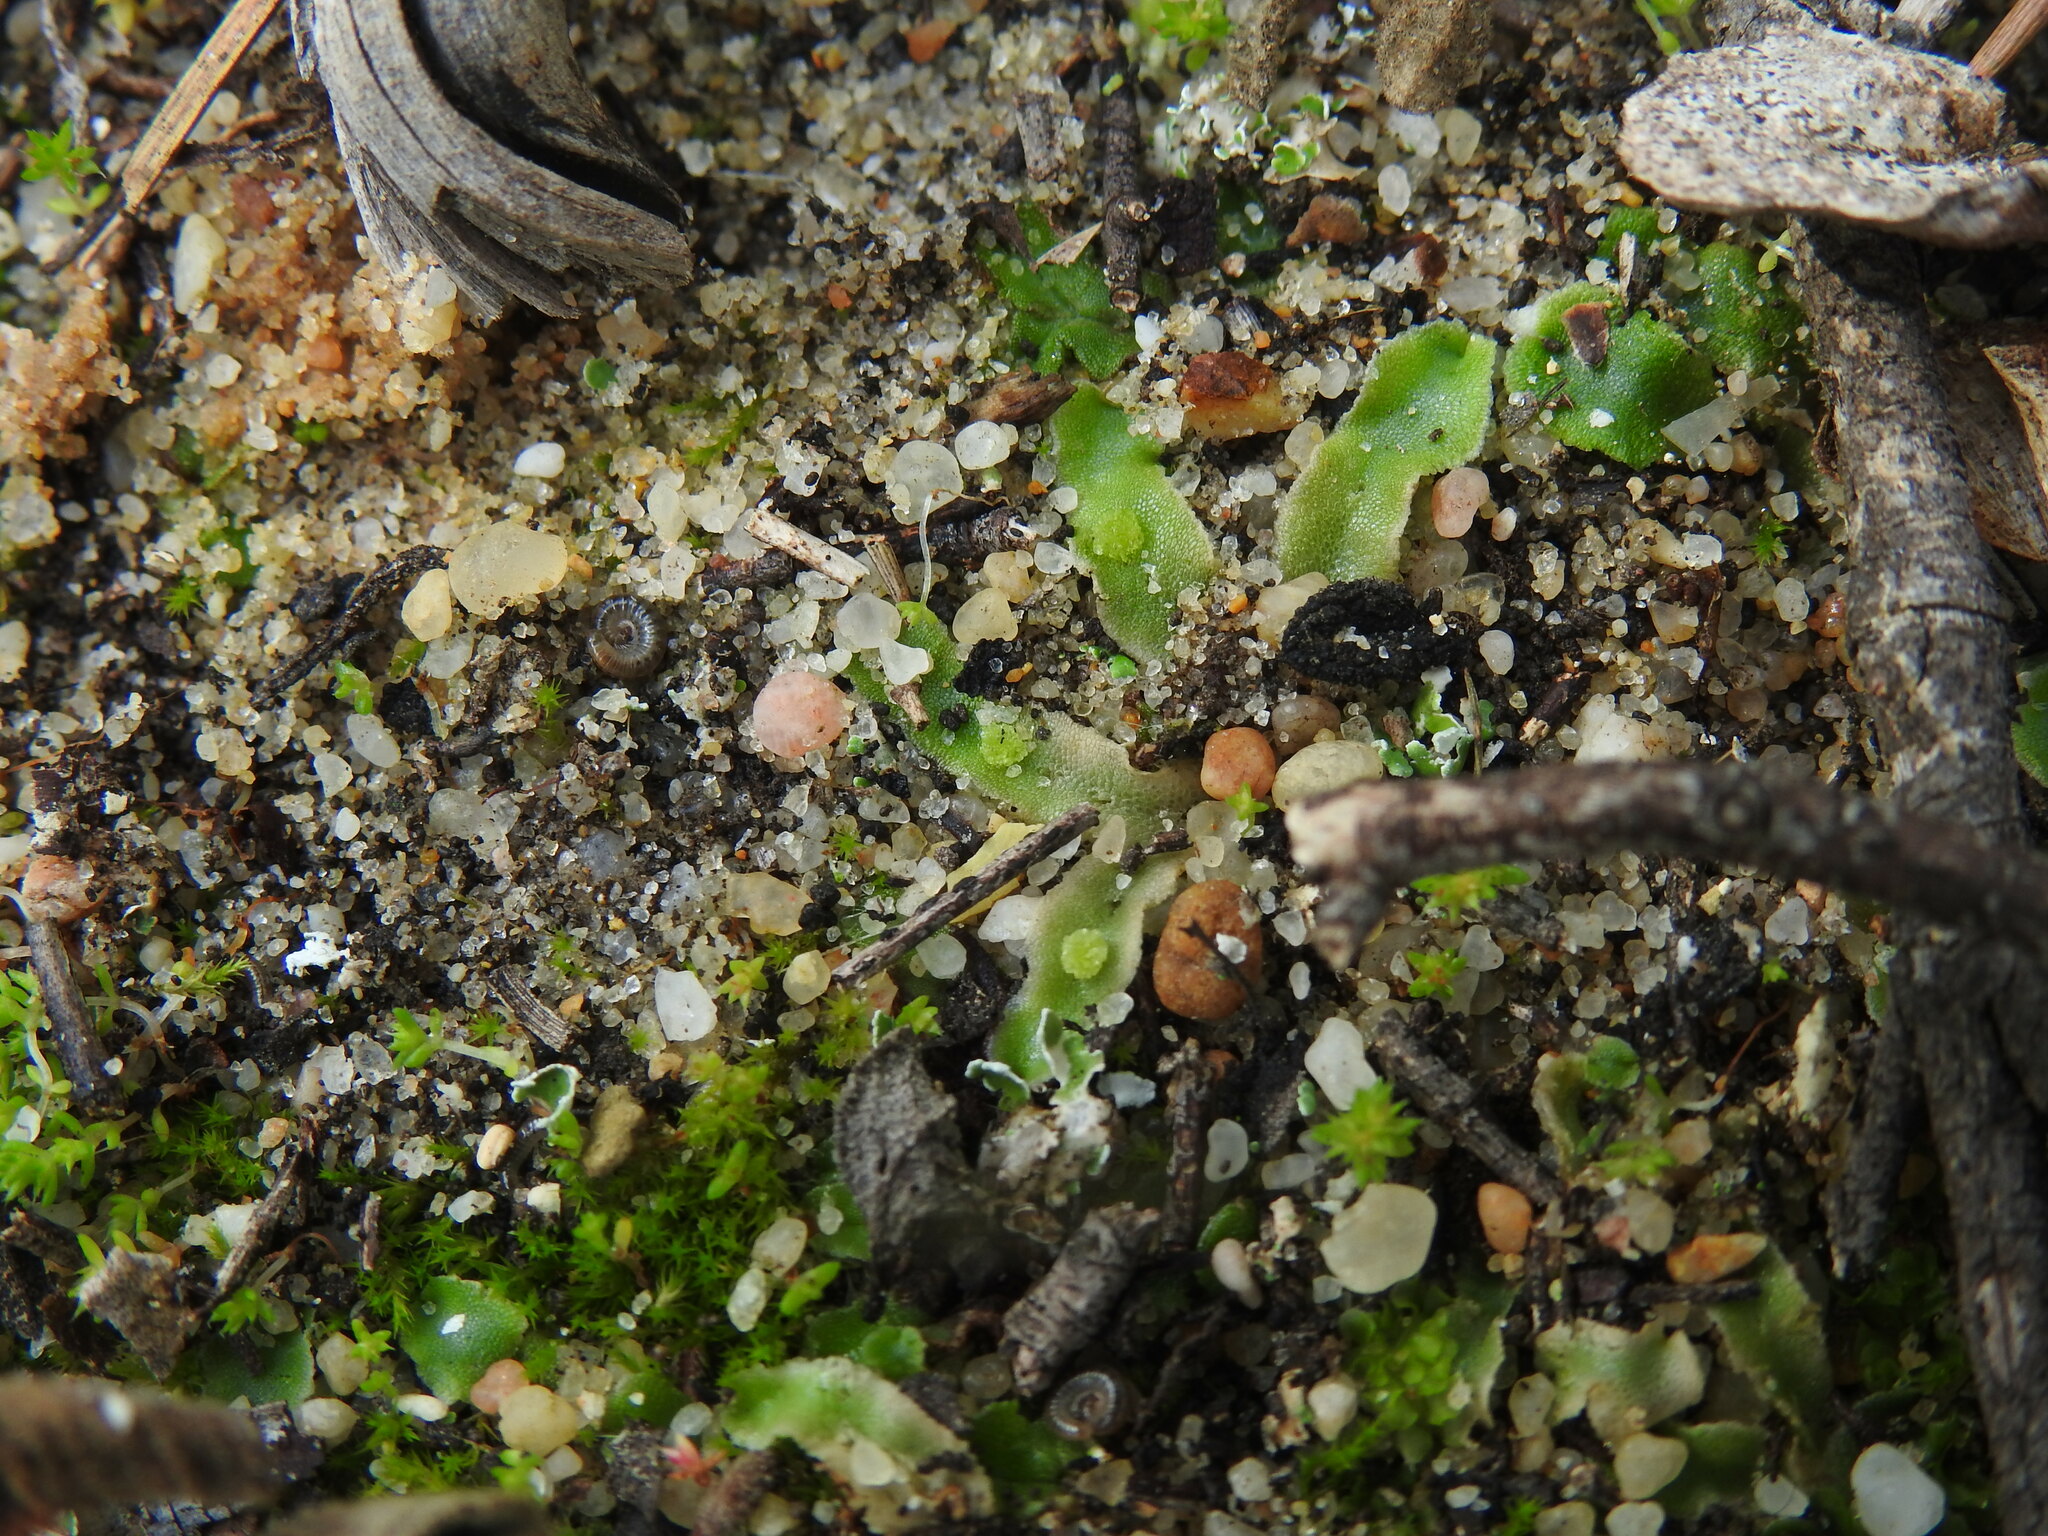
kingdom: Plantae
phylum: Marchantiophyta
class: Marchantiopsida
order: Marchantiales
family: Corsiniaceae
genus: Corsinia
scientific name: Corsinia coriandrina
